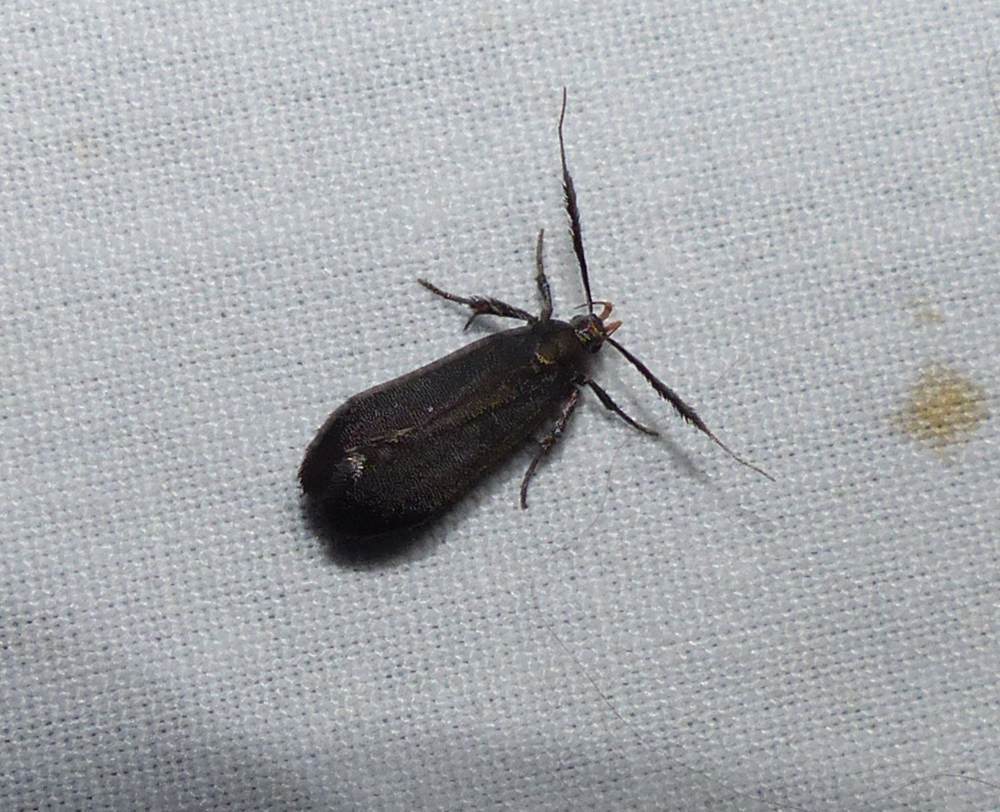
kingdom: Animalia
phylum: Arthropoda
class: Insecta
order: Lepidoptera
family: Gelechiidae
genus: Dichomeris
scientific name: Dichomeris nonstrigella
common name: Little devil moth
